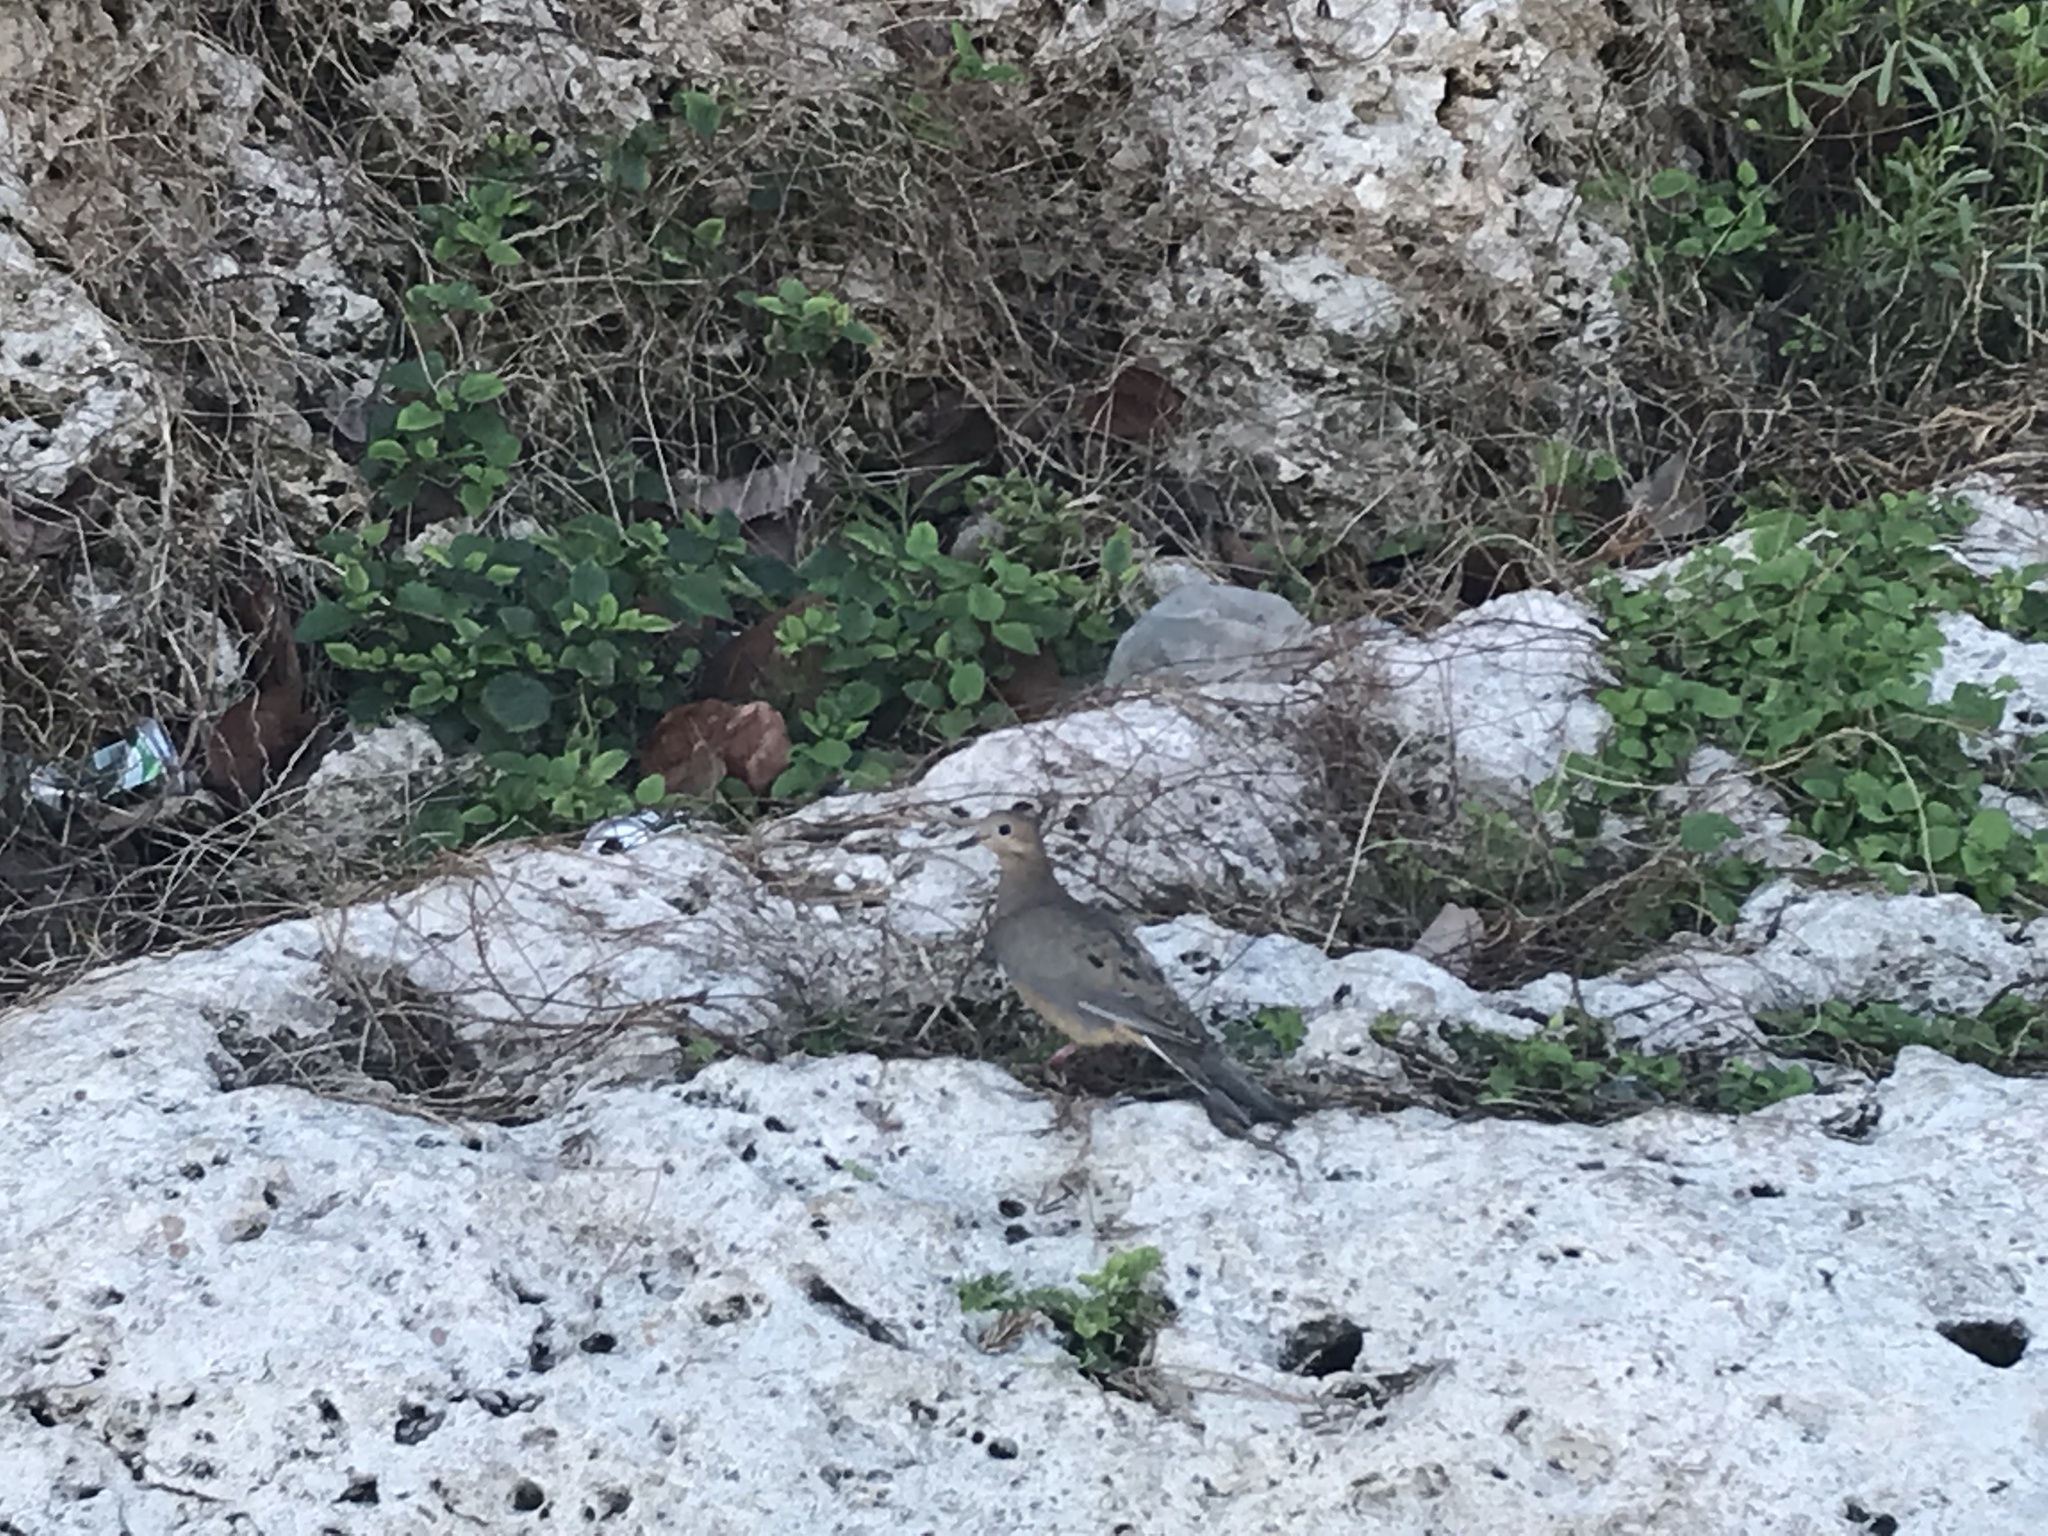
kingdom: Animalia
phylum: Chordata
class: Aves
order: Columbiformes
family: Columbidae
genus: Zenaida
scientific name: Zenaida macroura
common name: Mourning dove
